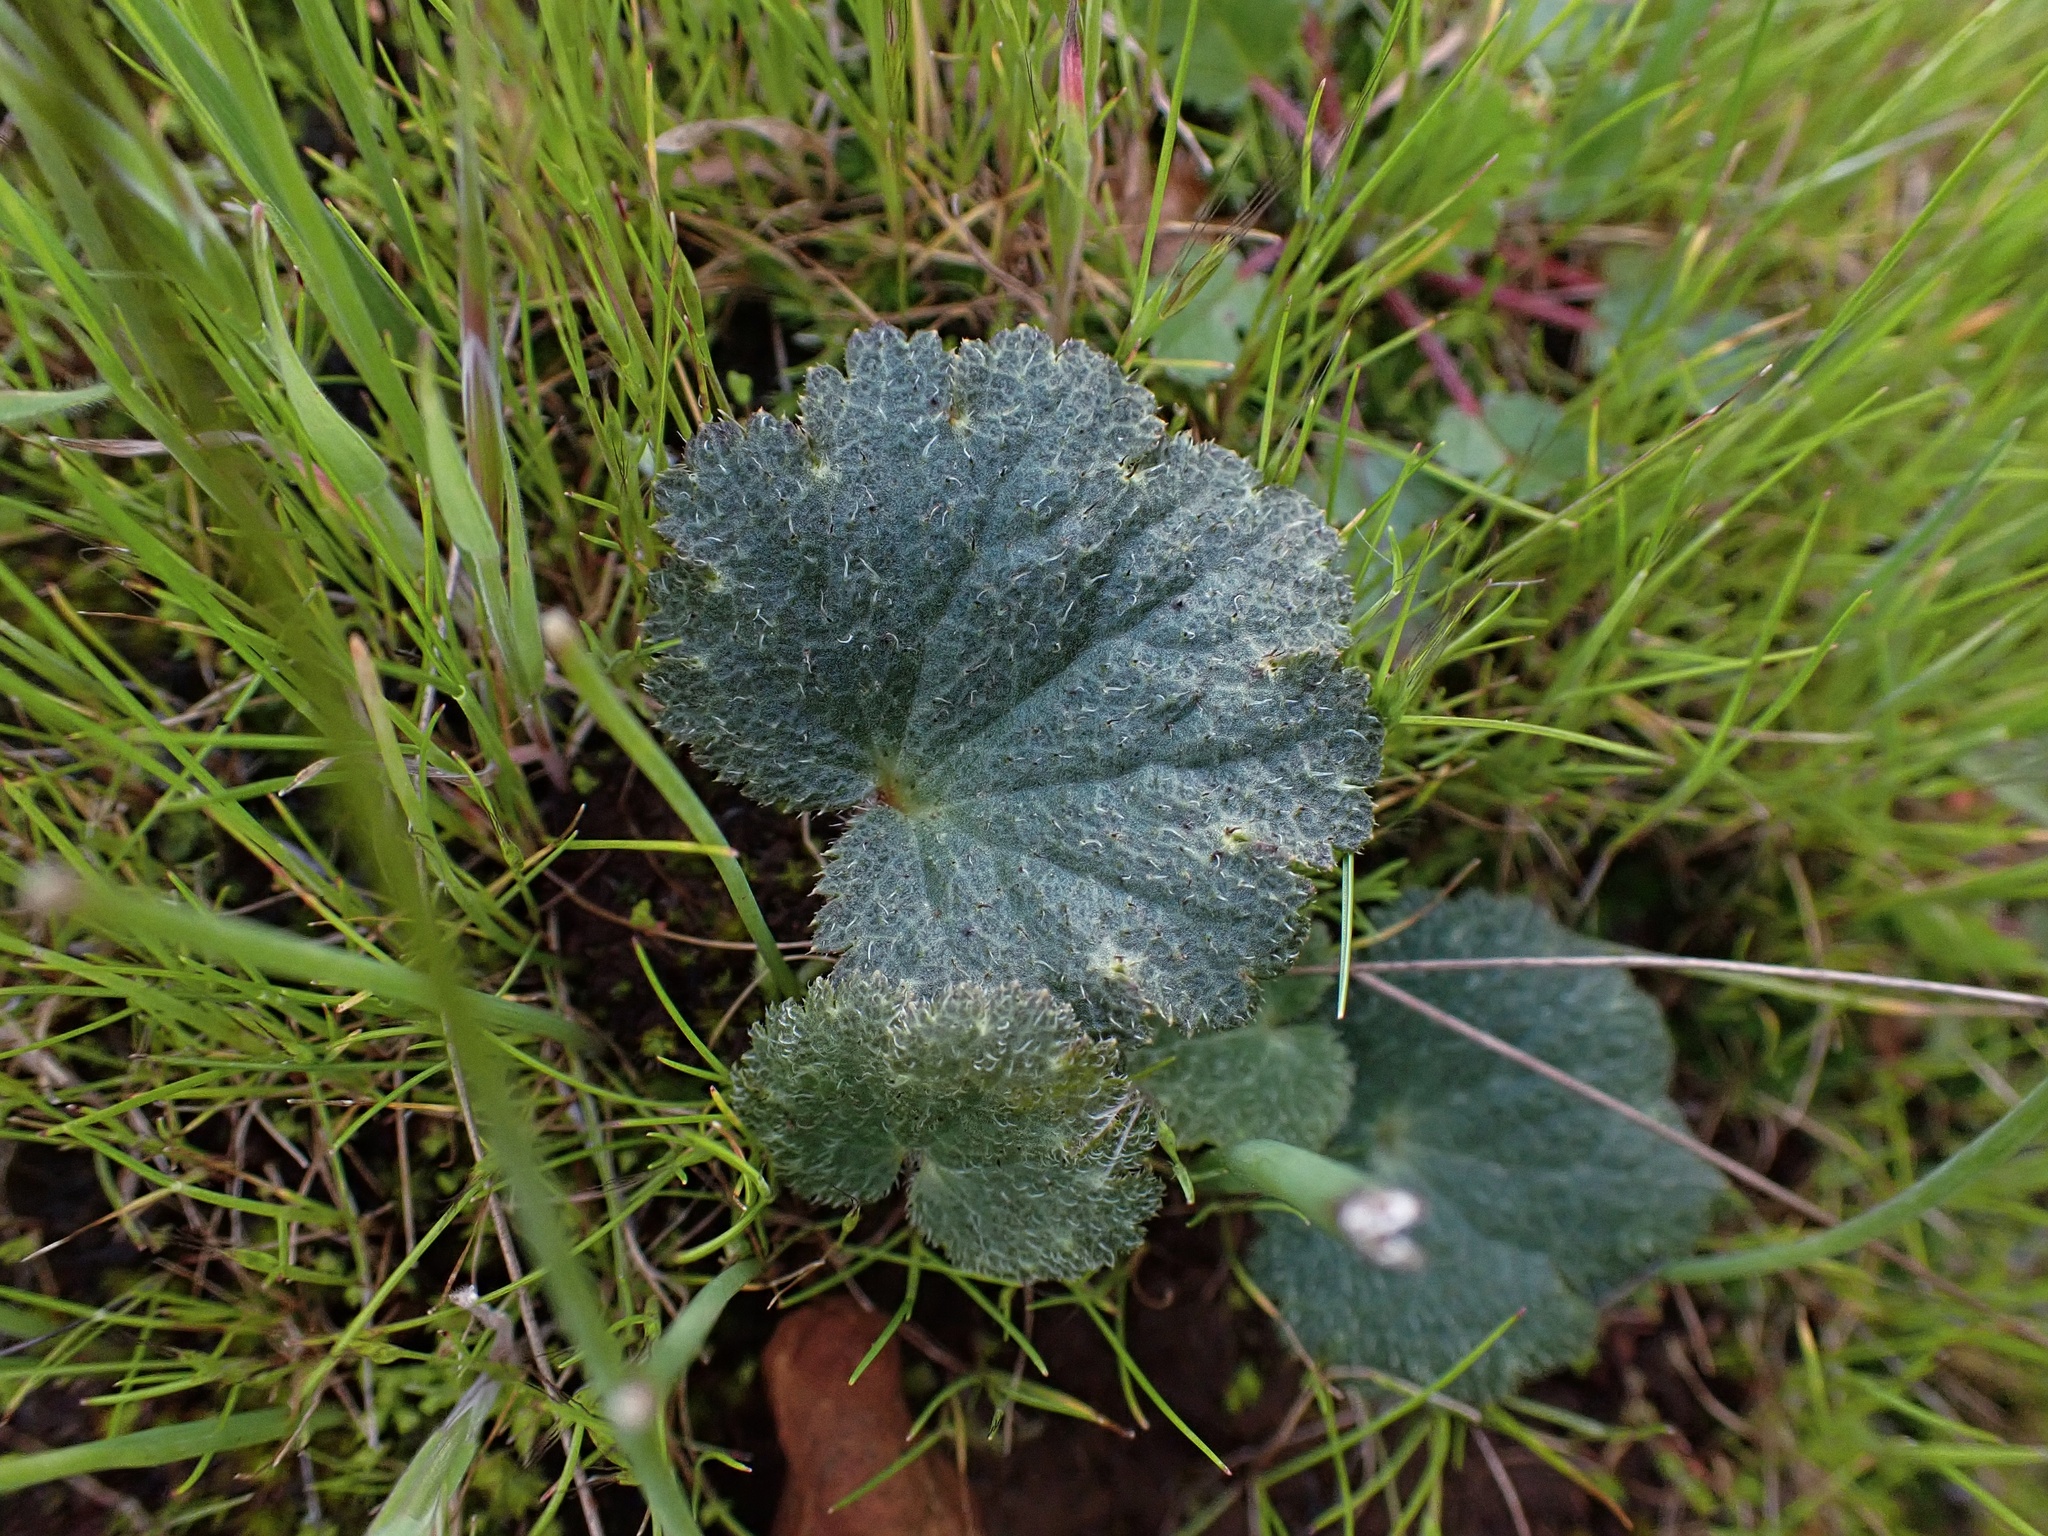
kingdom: Plantae
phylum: Tracheophyta
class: Magnoliopsida
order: Saxifragales
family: Saxifragaceae
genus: Jepsonia
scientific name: Jepsonia parryi
